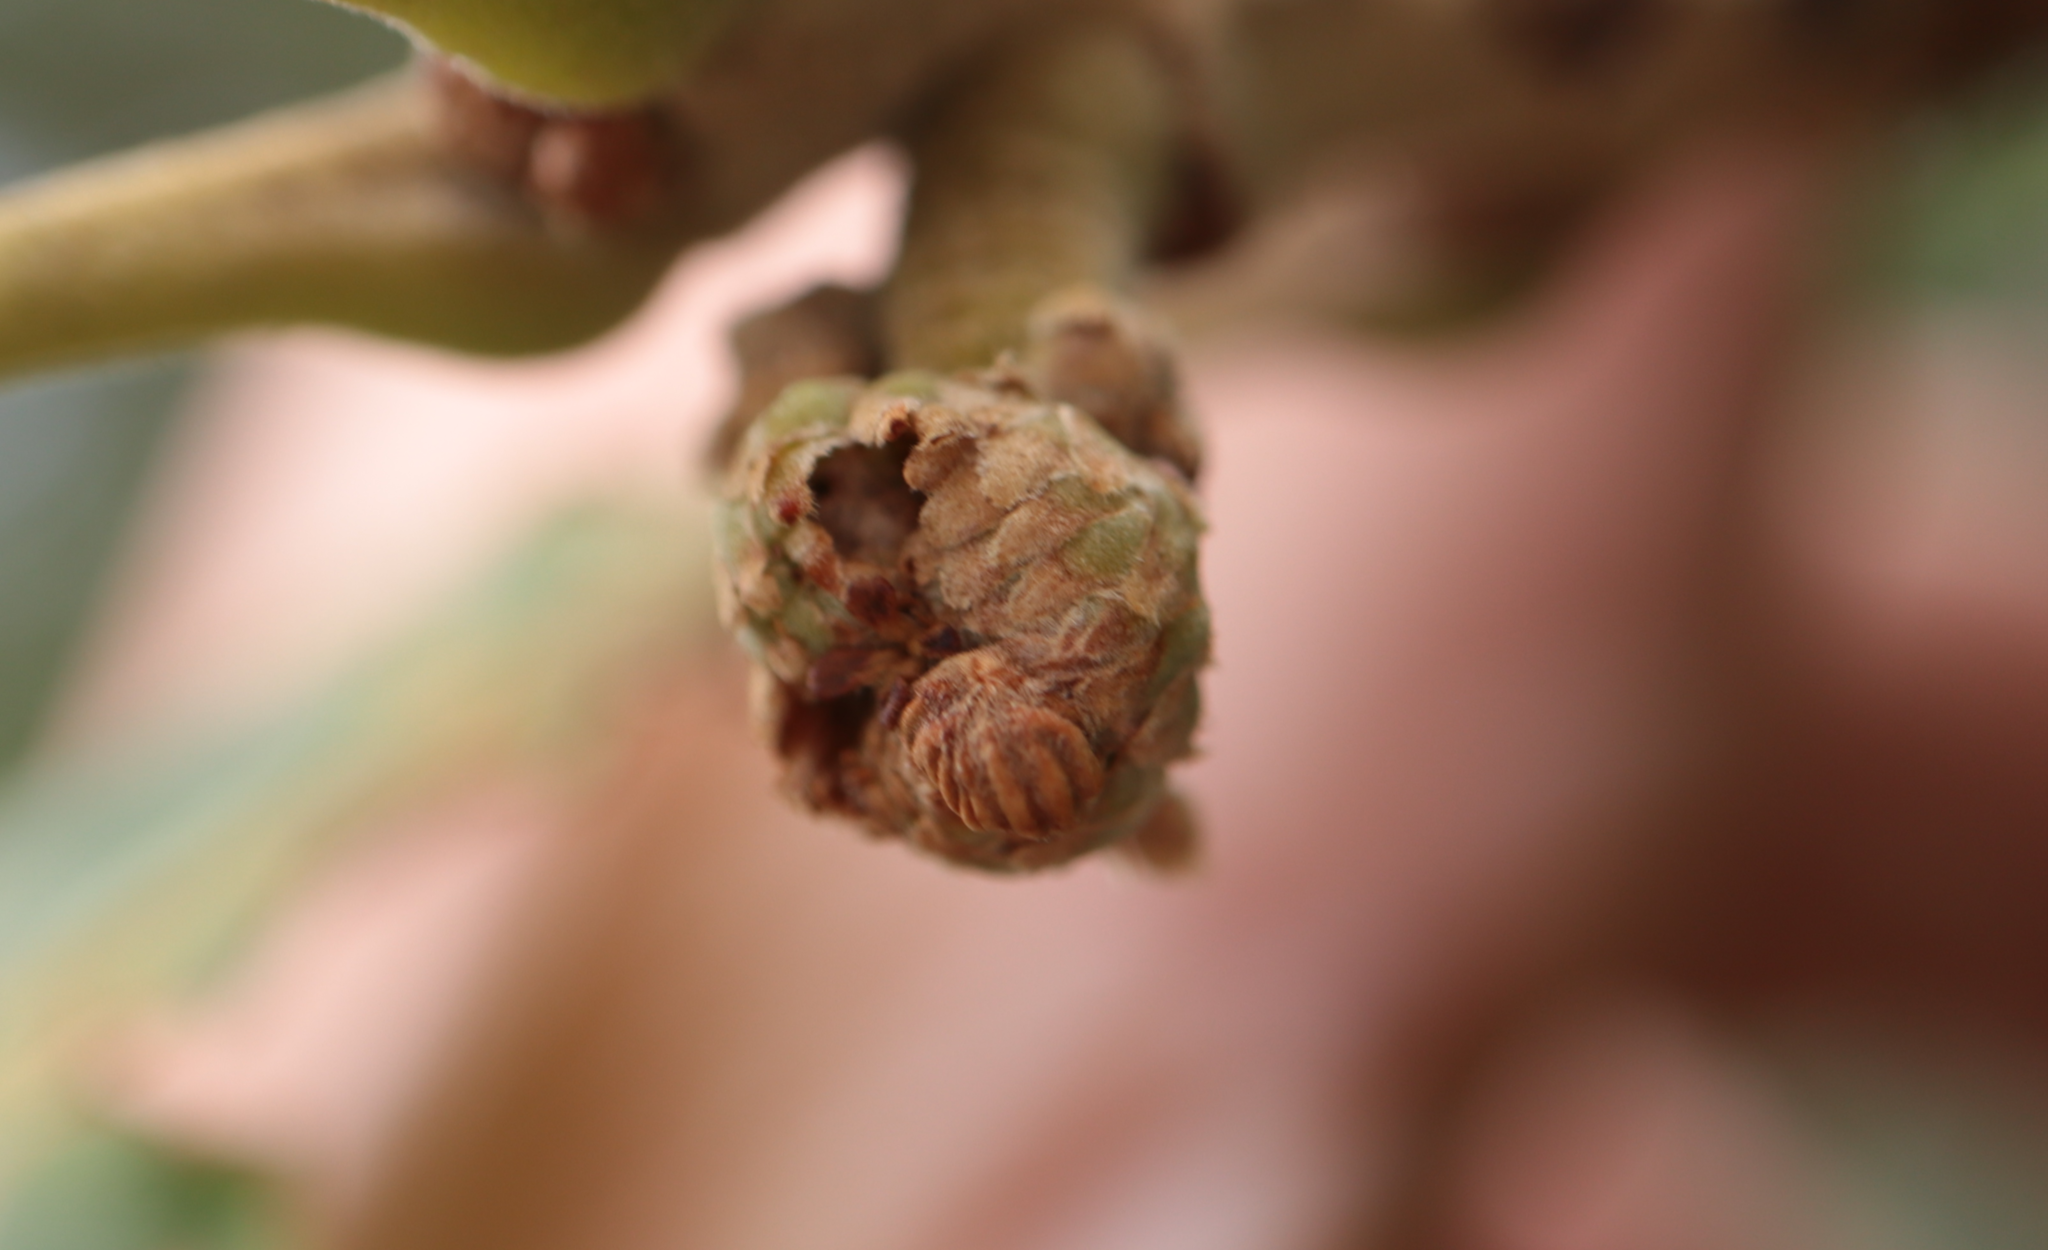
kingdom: Animalia
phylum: Arthropoda
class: Insecta
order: Hymenoptera
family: Cynipidae
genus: Callirhytis
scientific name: Callirhytis
